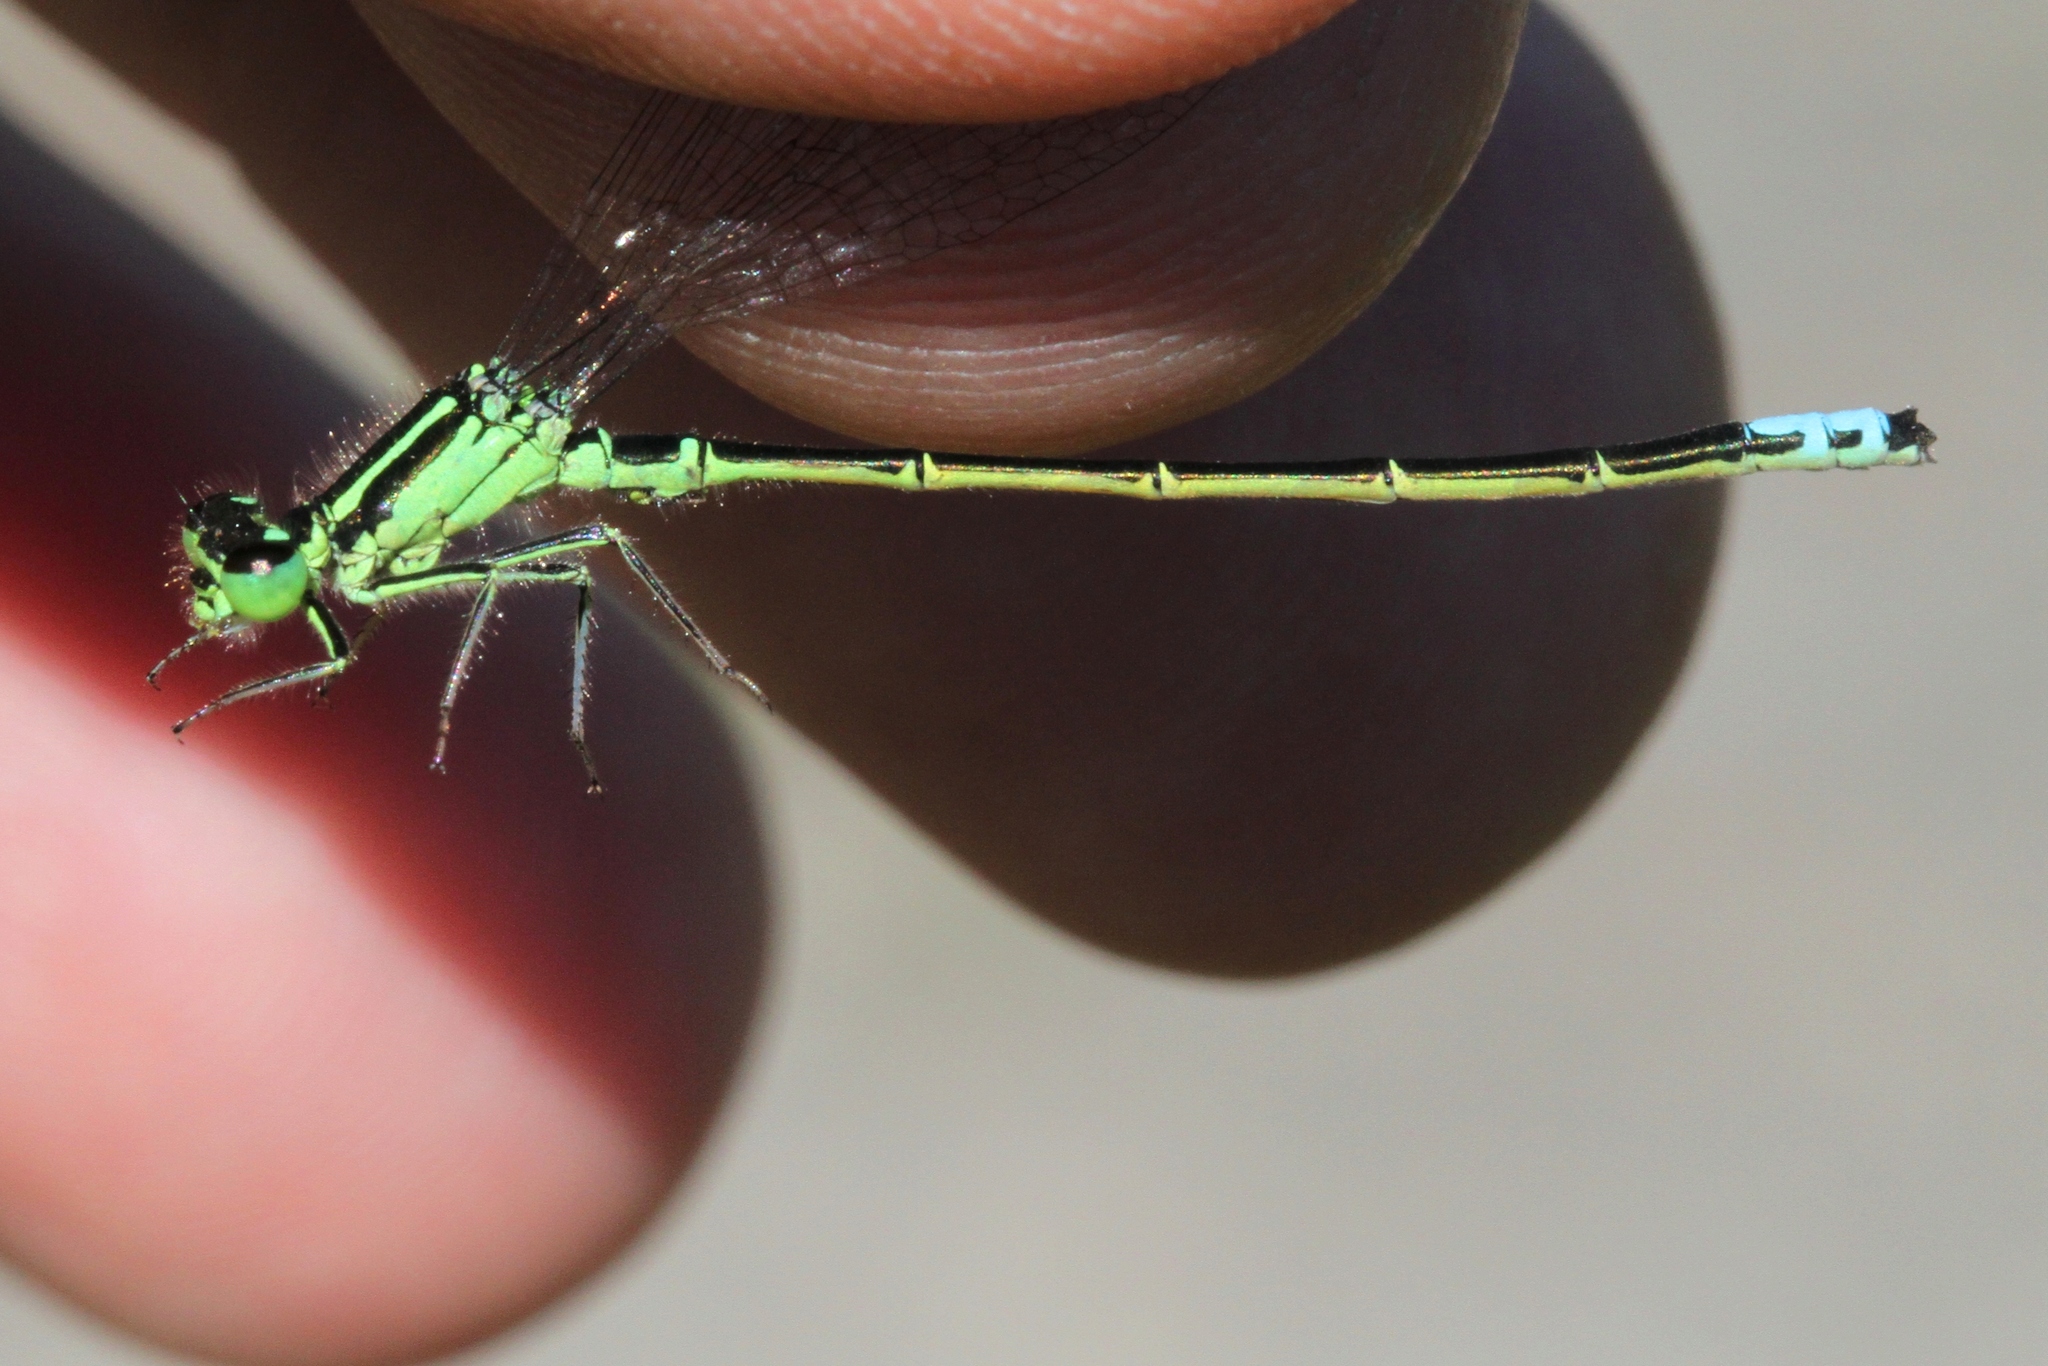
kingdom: Animalia
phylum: Arthropoda
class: Insecta
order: Odonata
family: Coenagrionidae
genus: Ischnura
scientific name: Ischnura verticalis
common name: Eastern forktail
